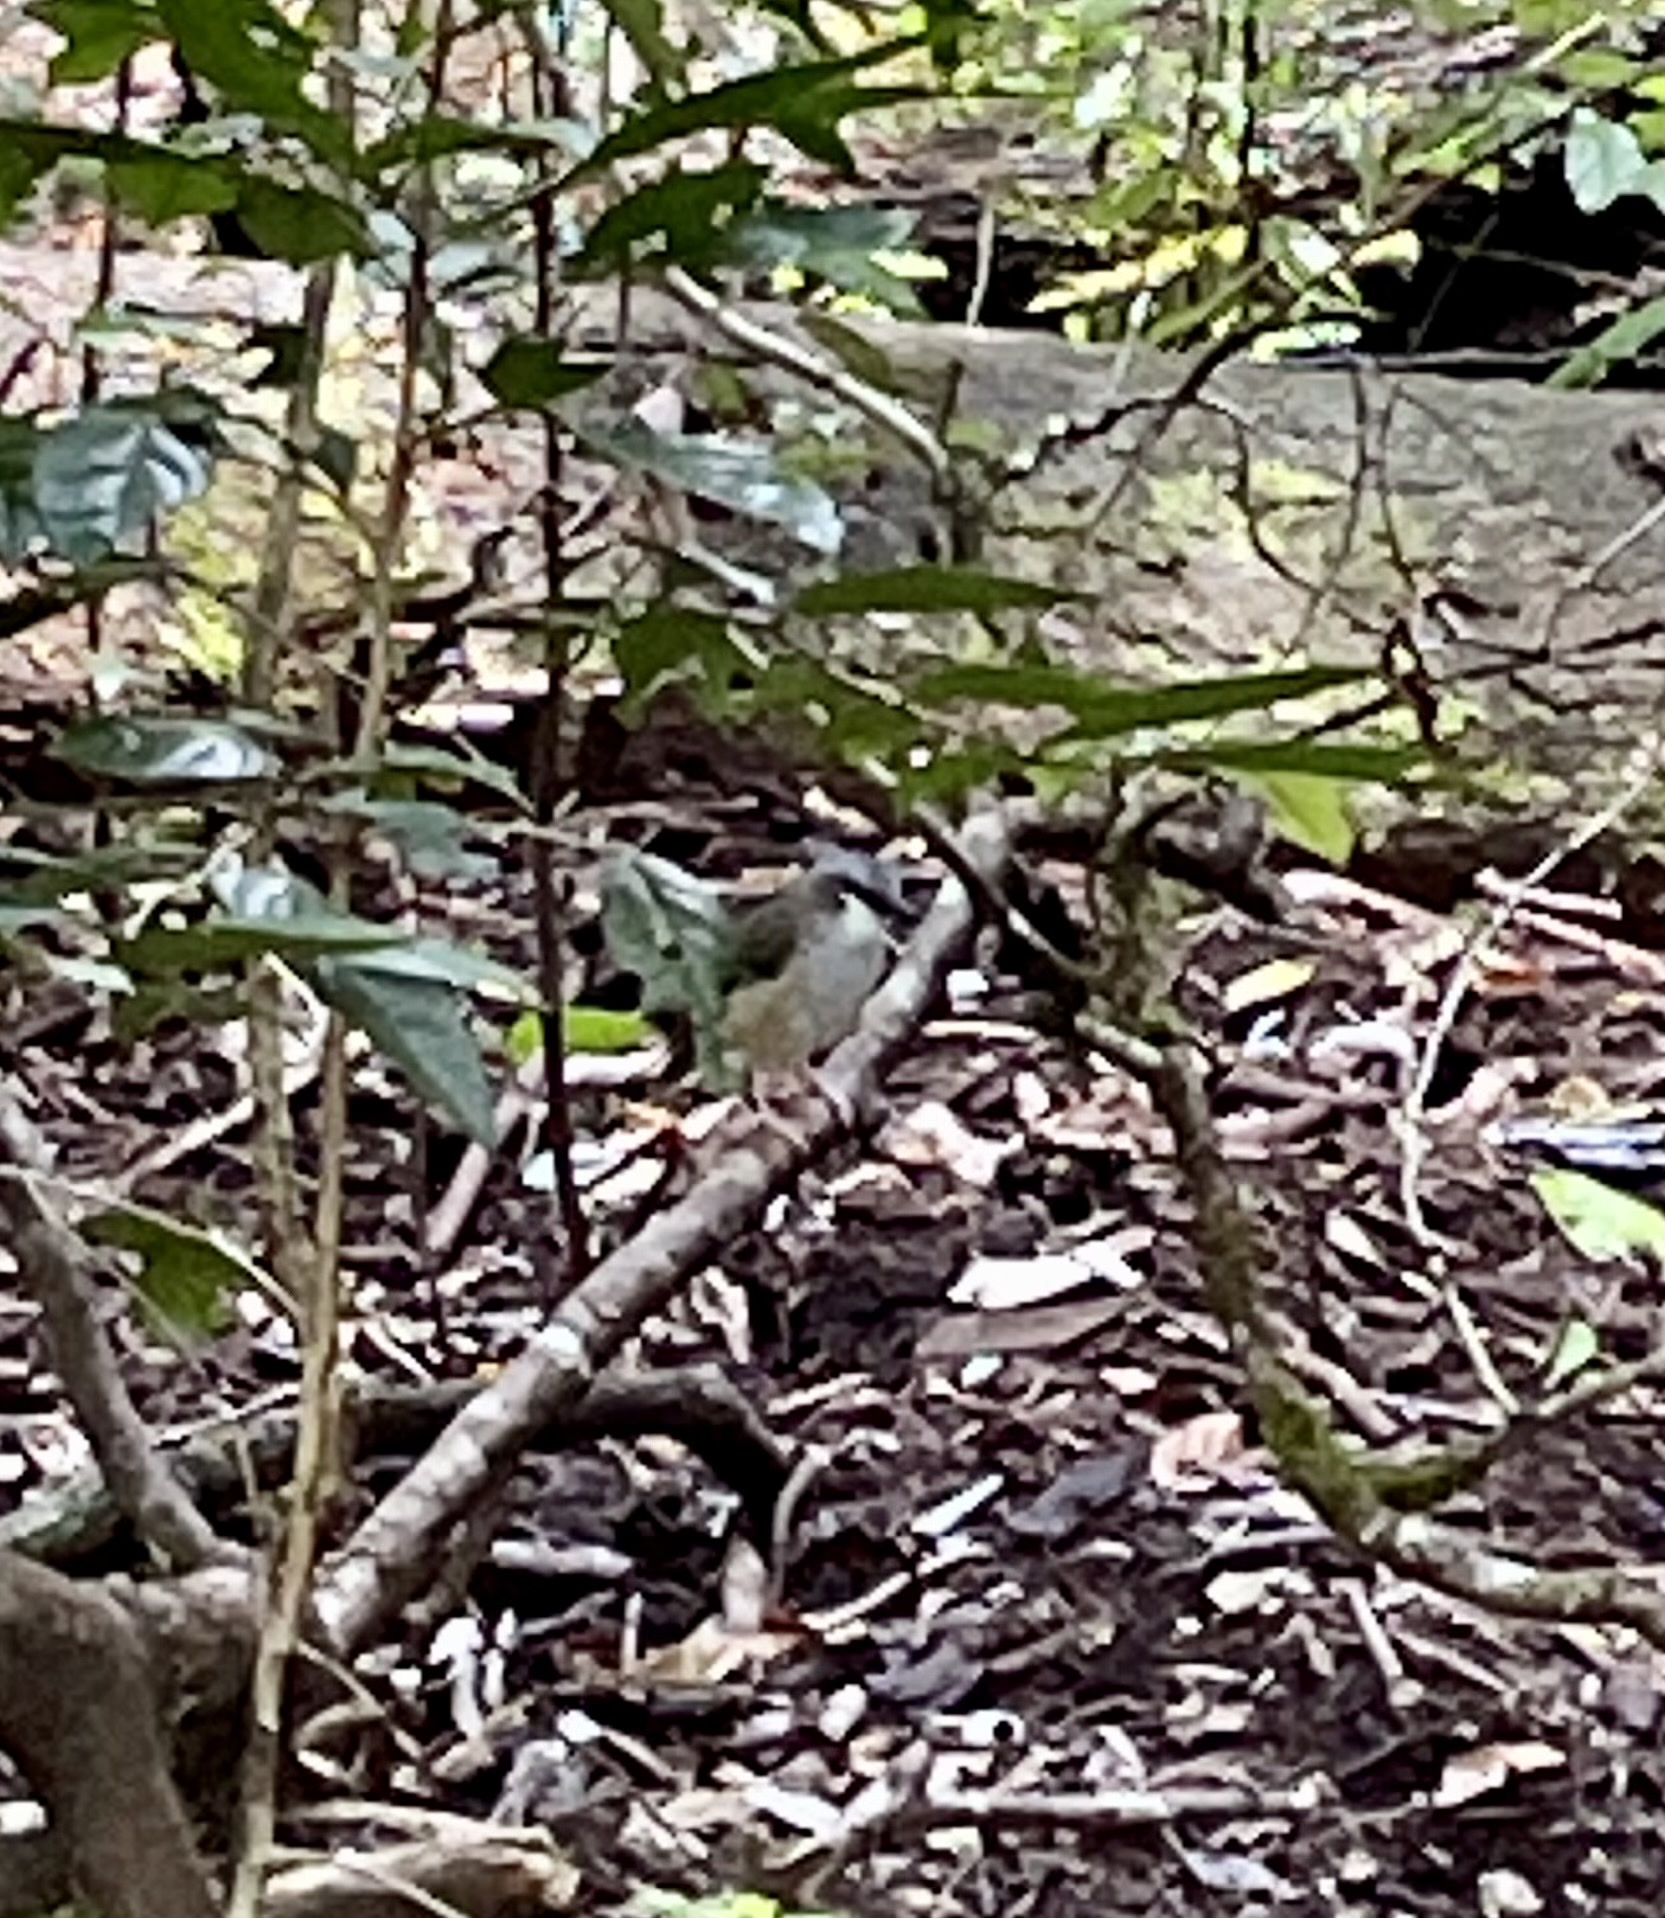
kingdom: Animalia
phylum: Chordata
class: Aves
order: Passeriformes
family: Petroicidae
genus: Heteromyias
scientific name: Heteromyias cinereifrons
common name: Grey-headed robin
